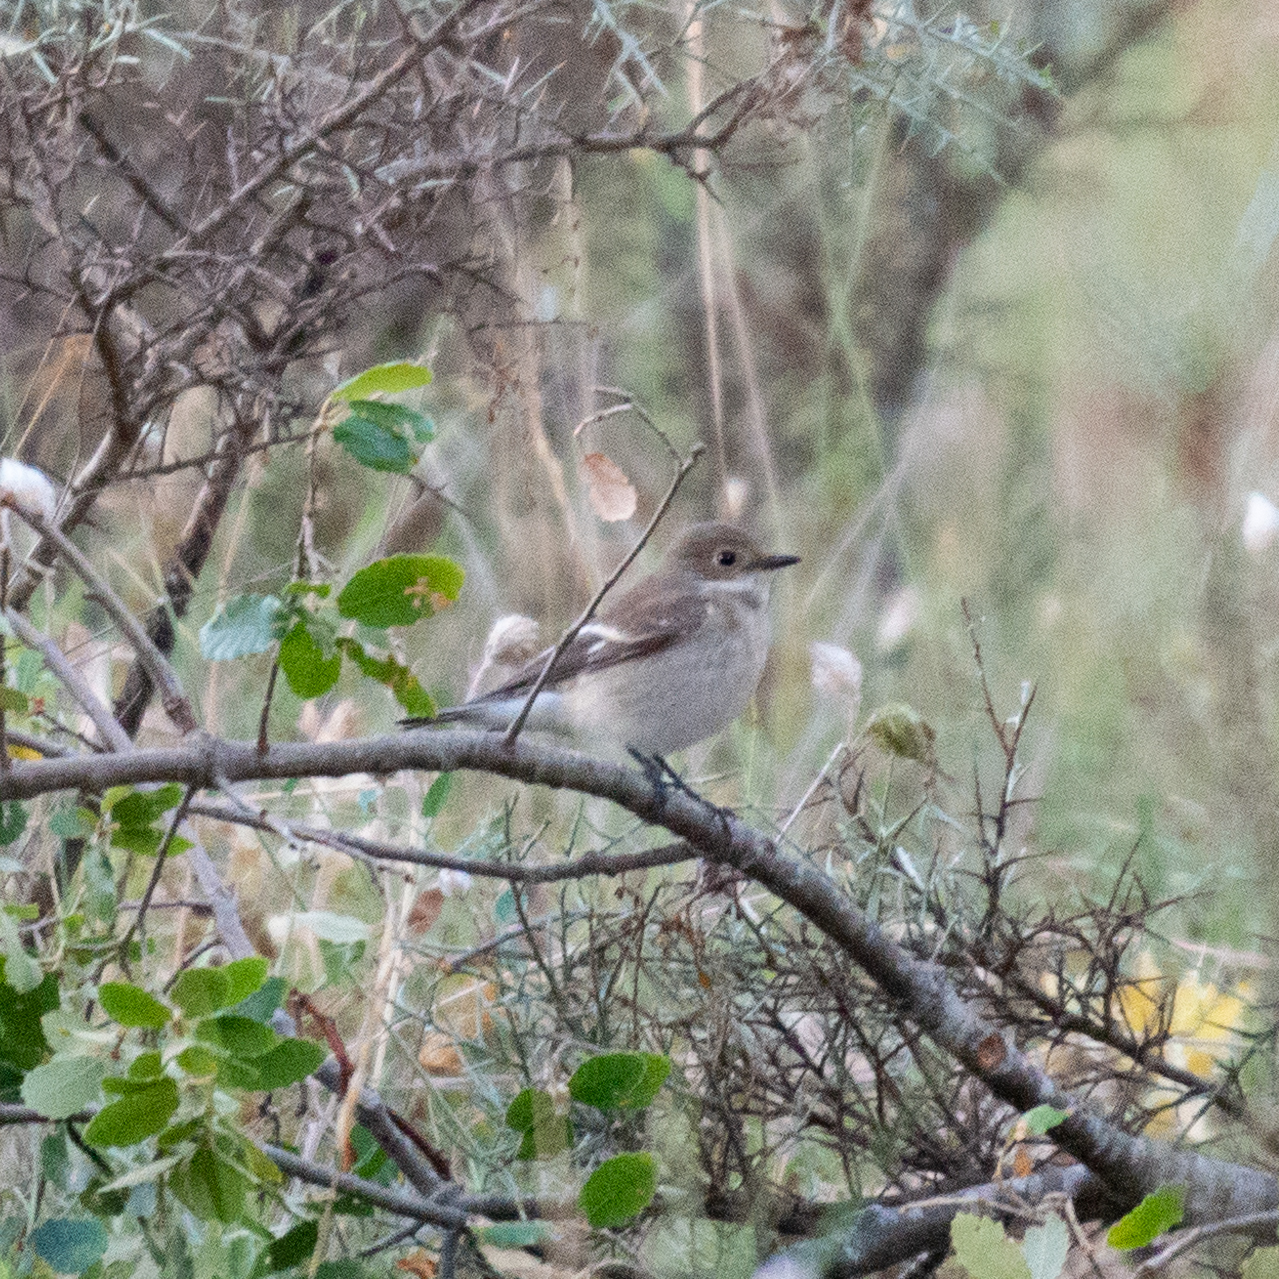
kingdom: Animalia
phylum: Chordata
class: Aves
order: Passeriformes
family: Muscicapidae
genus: Ficedula
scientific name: Ficedula hypoleuca
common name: European pied flycatcher
